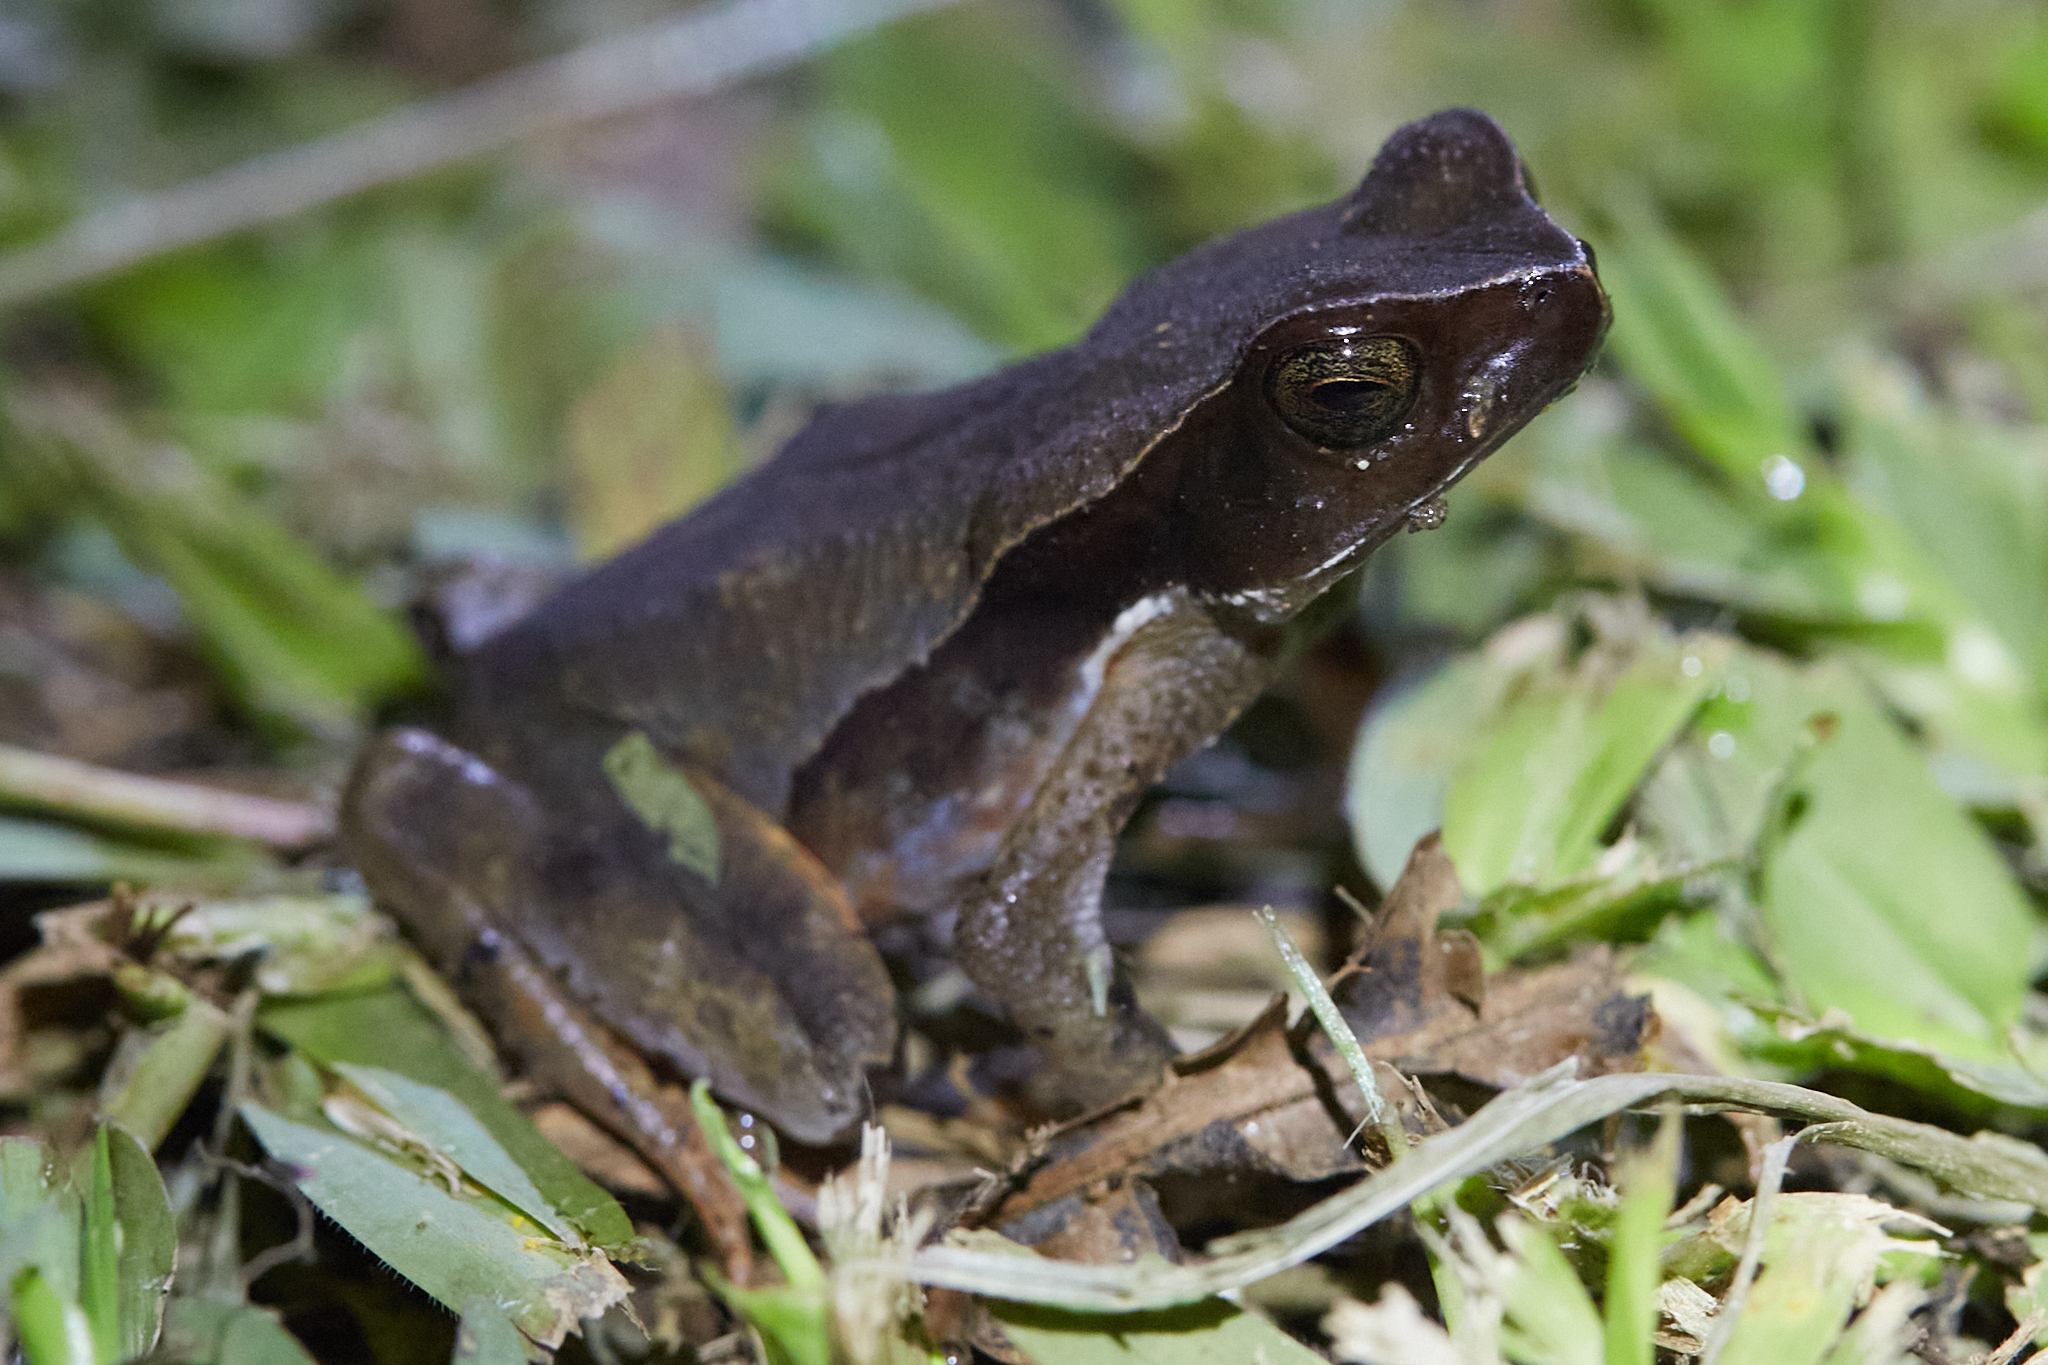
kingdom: Animalia
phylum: Chordata
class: Amphibia
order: Anura
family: Bufonidae
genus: Rhaebo
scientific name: Rhaebo haematiticus
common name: Truando toad
